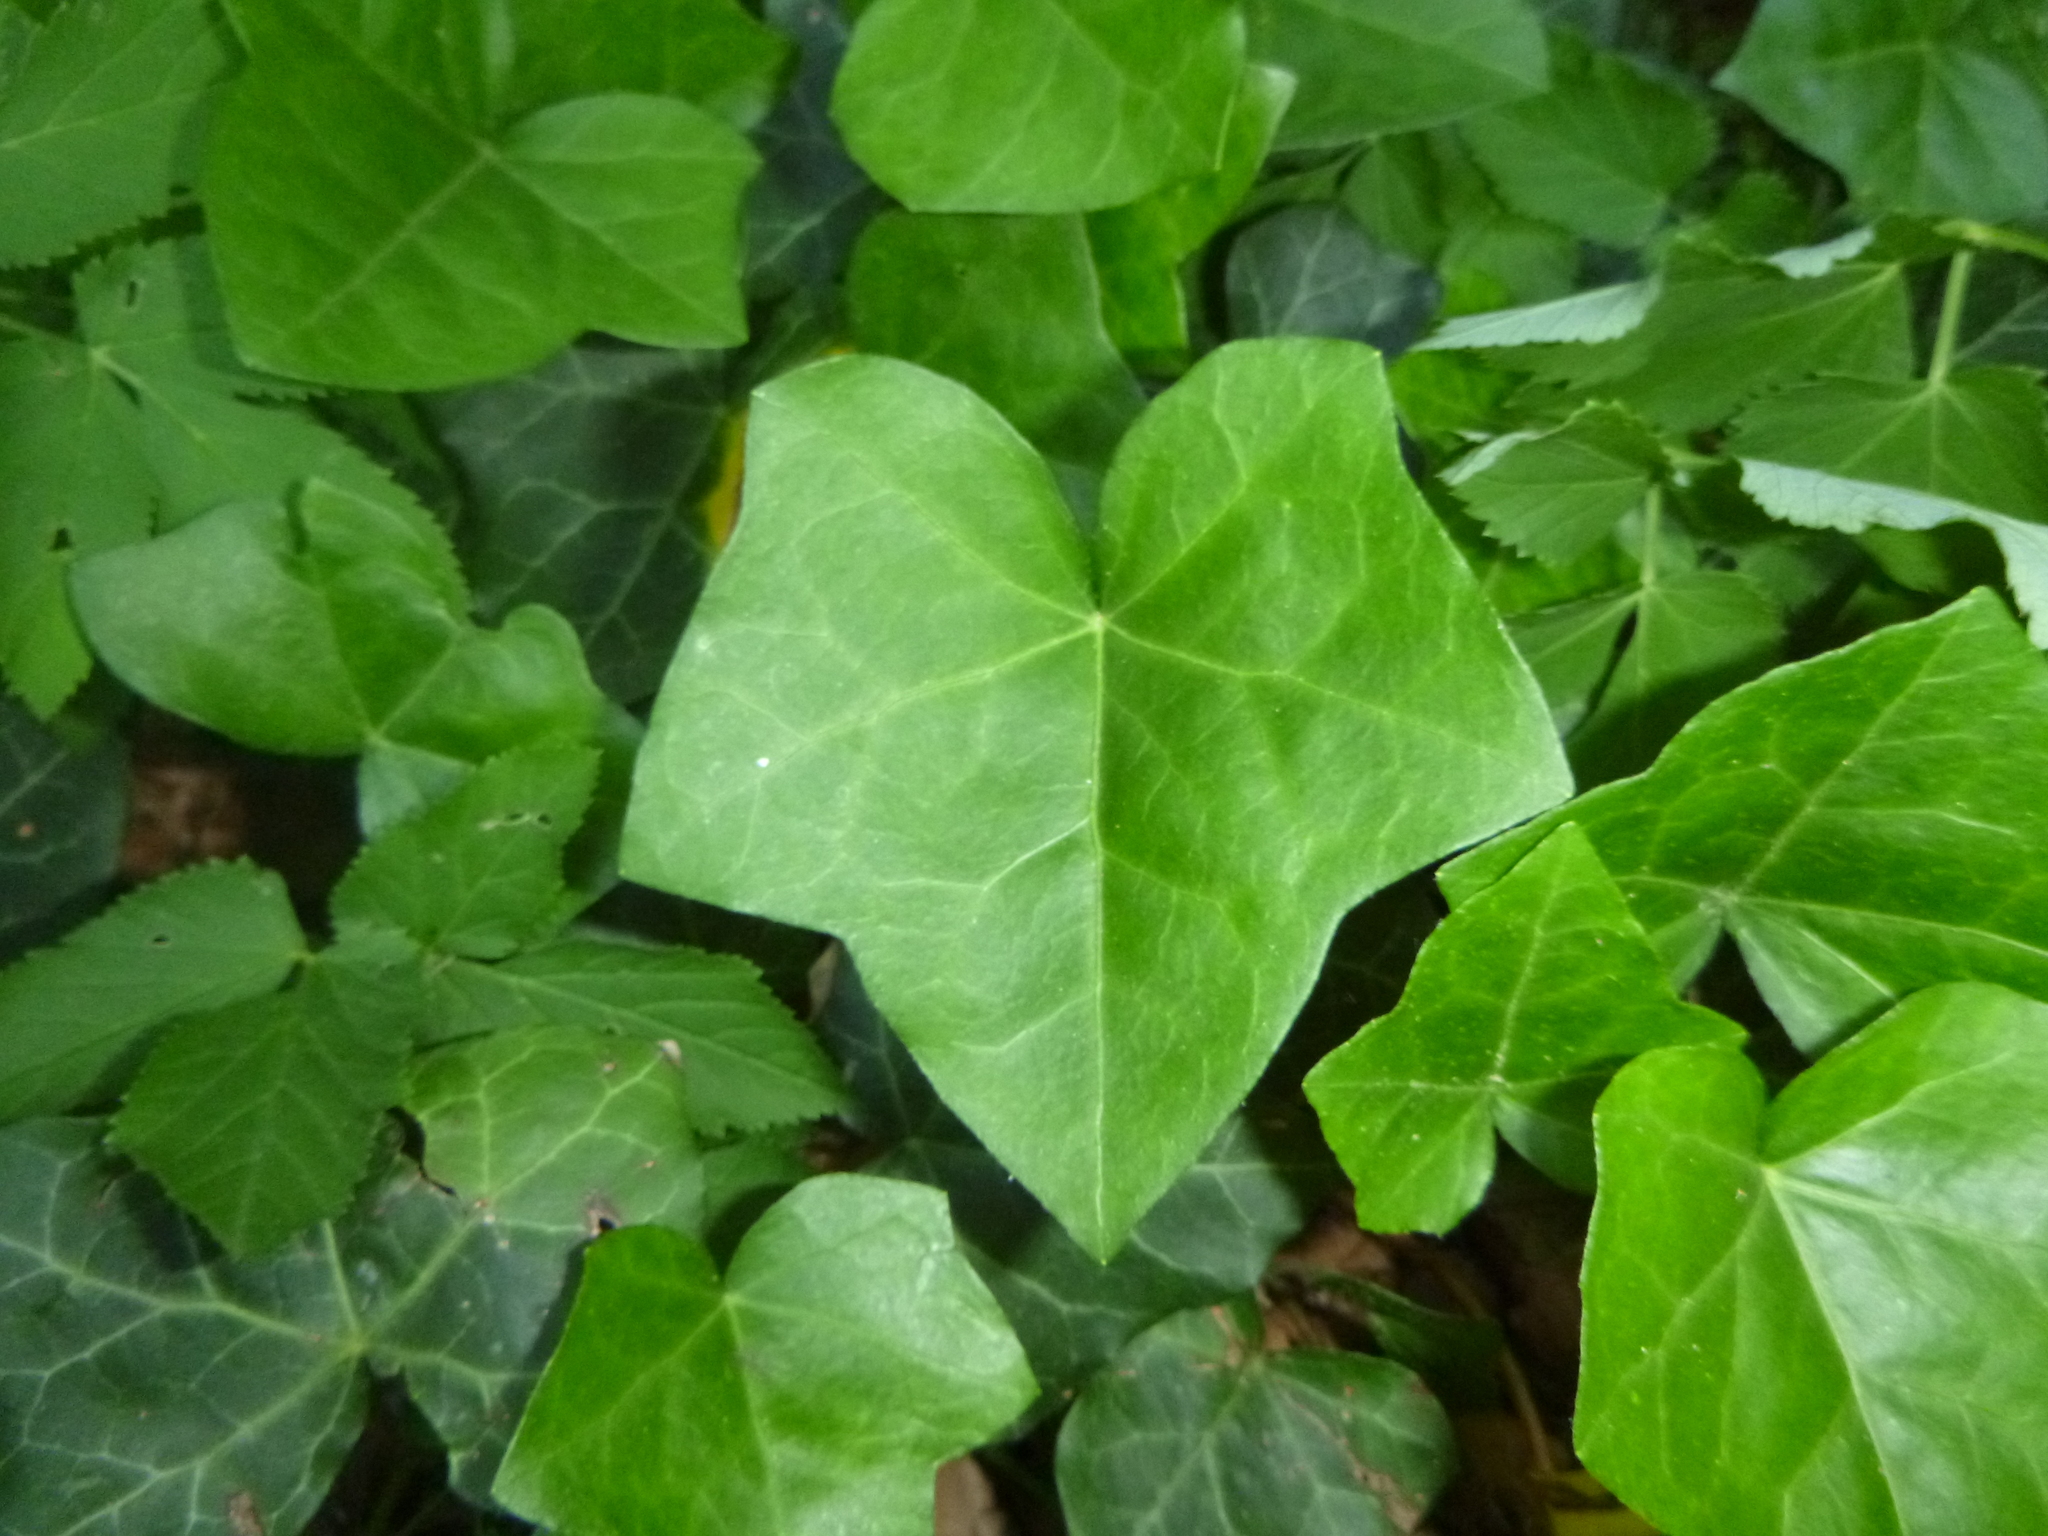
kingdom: Plantae
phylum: Tracheophyta
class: Magnoliopsida
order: Apiales
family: Araliaceae
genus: Hedera
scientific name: Hedera helix
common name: Ivy
